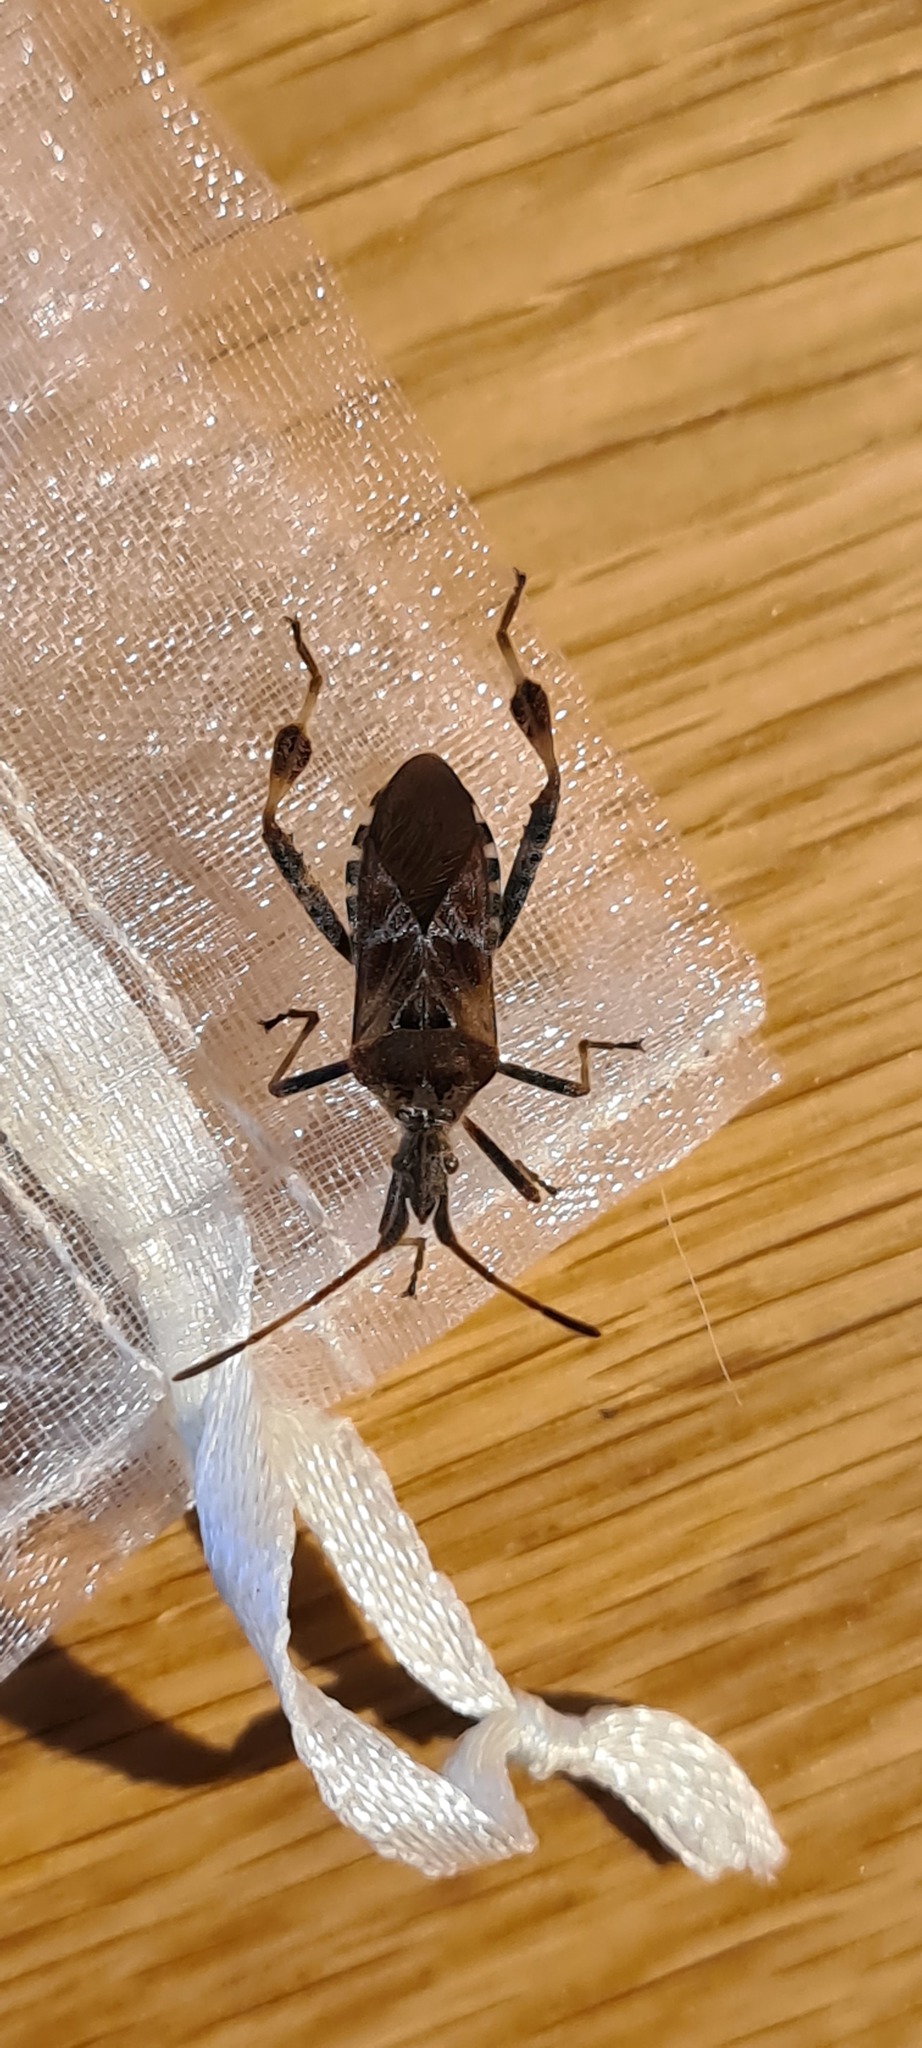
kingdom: Animalia
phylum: Arthropoda
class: Insecta
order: Hemiptera
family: Coreidae
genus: Leptoglossus
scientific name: Leptoglossus occidentalis
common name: Western conifer-seed bug
